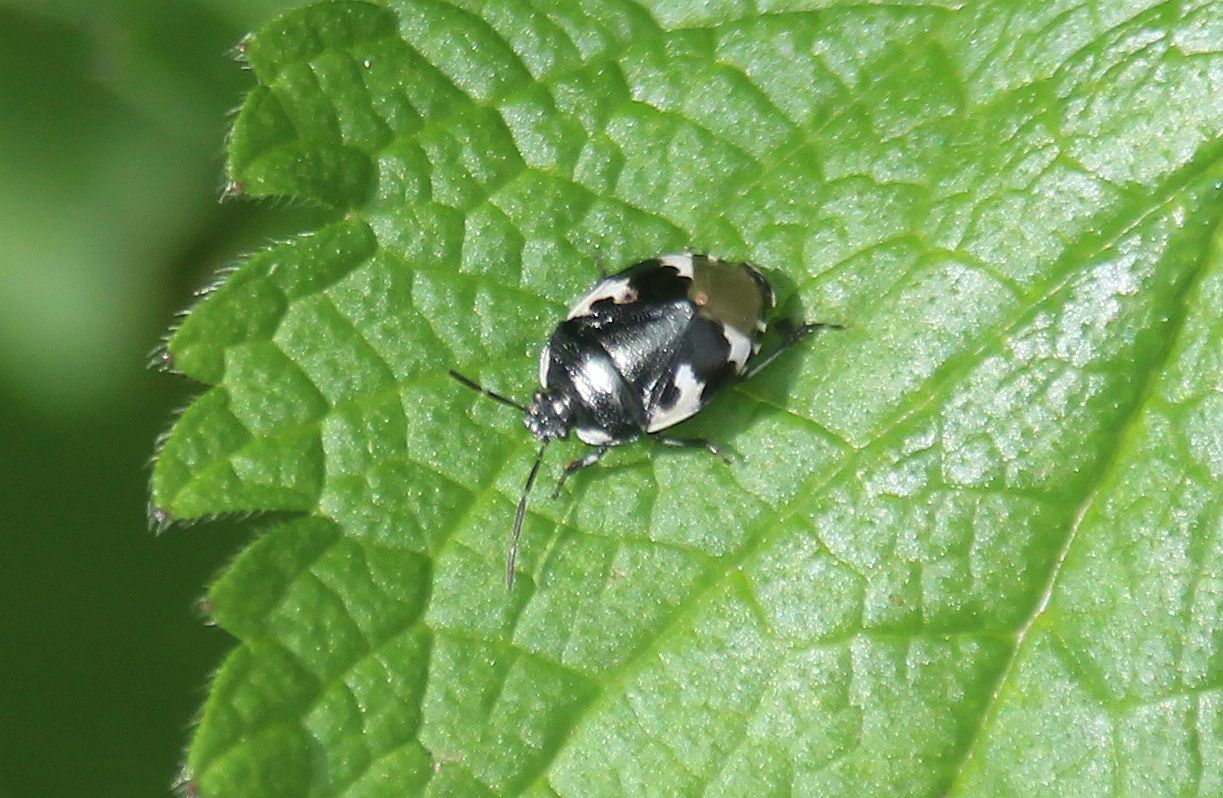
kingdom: Animalia
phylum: Arthropoda
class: Insecta
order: Hemiptera
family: Cydnidae
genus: Tritomegas
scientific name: Tritomegas bicolor
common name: Pied shieldbug
